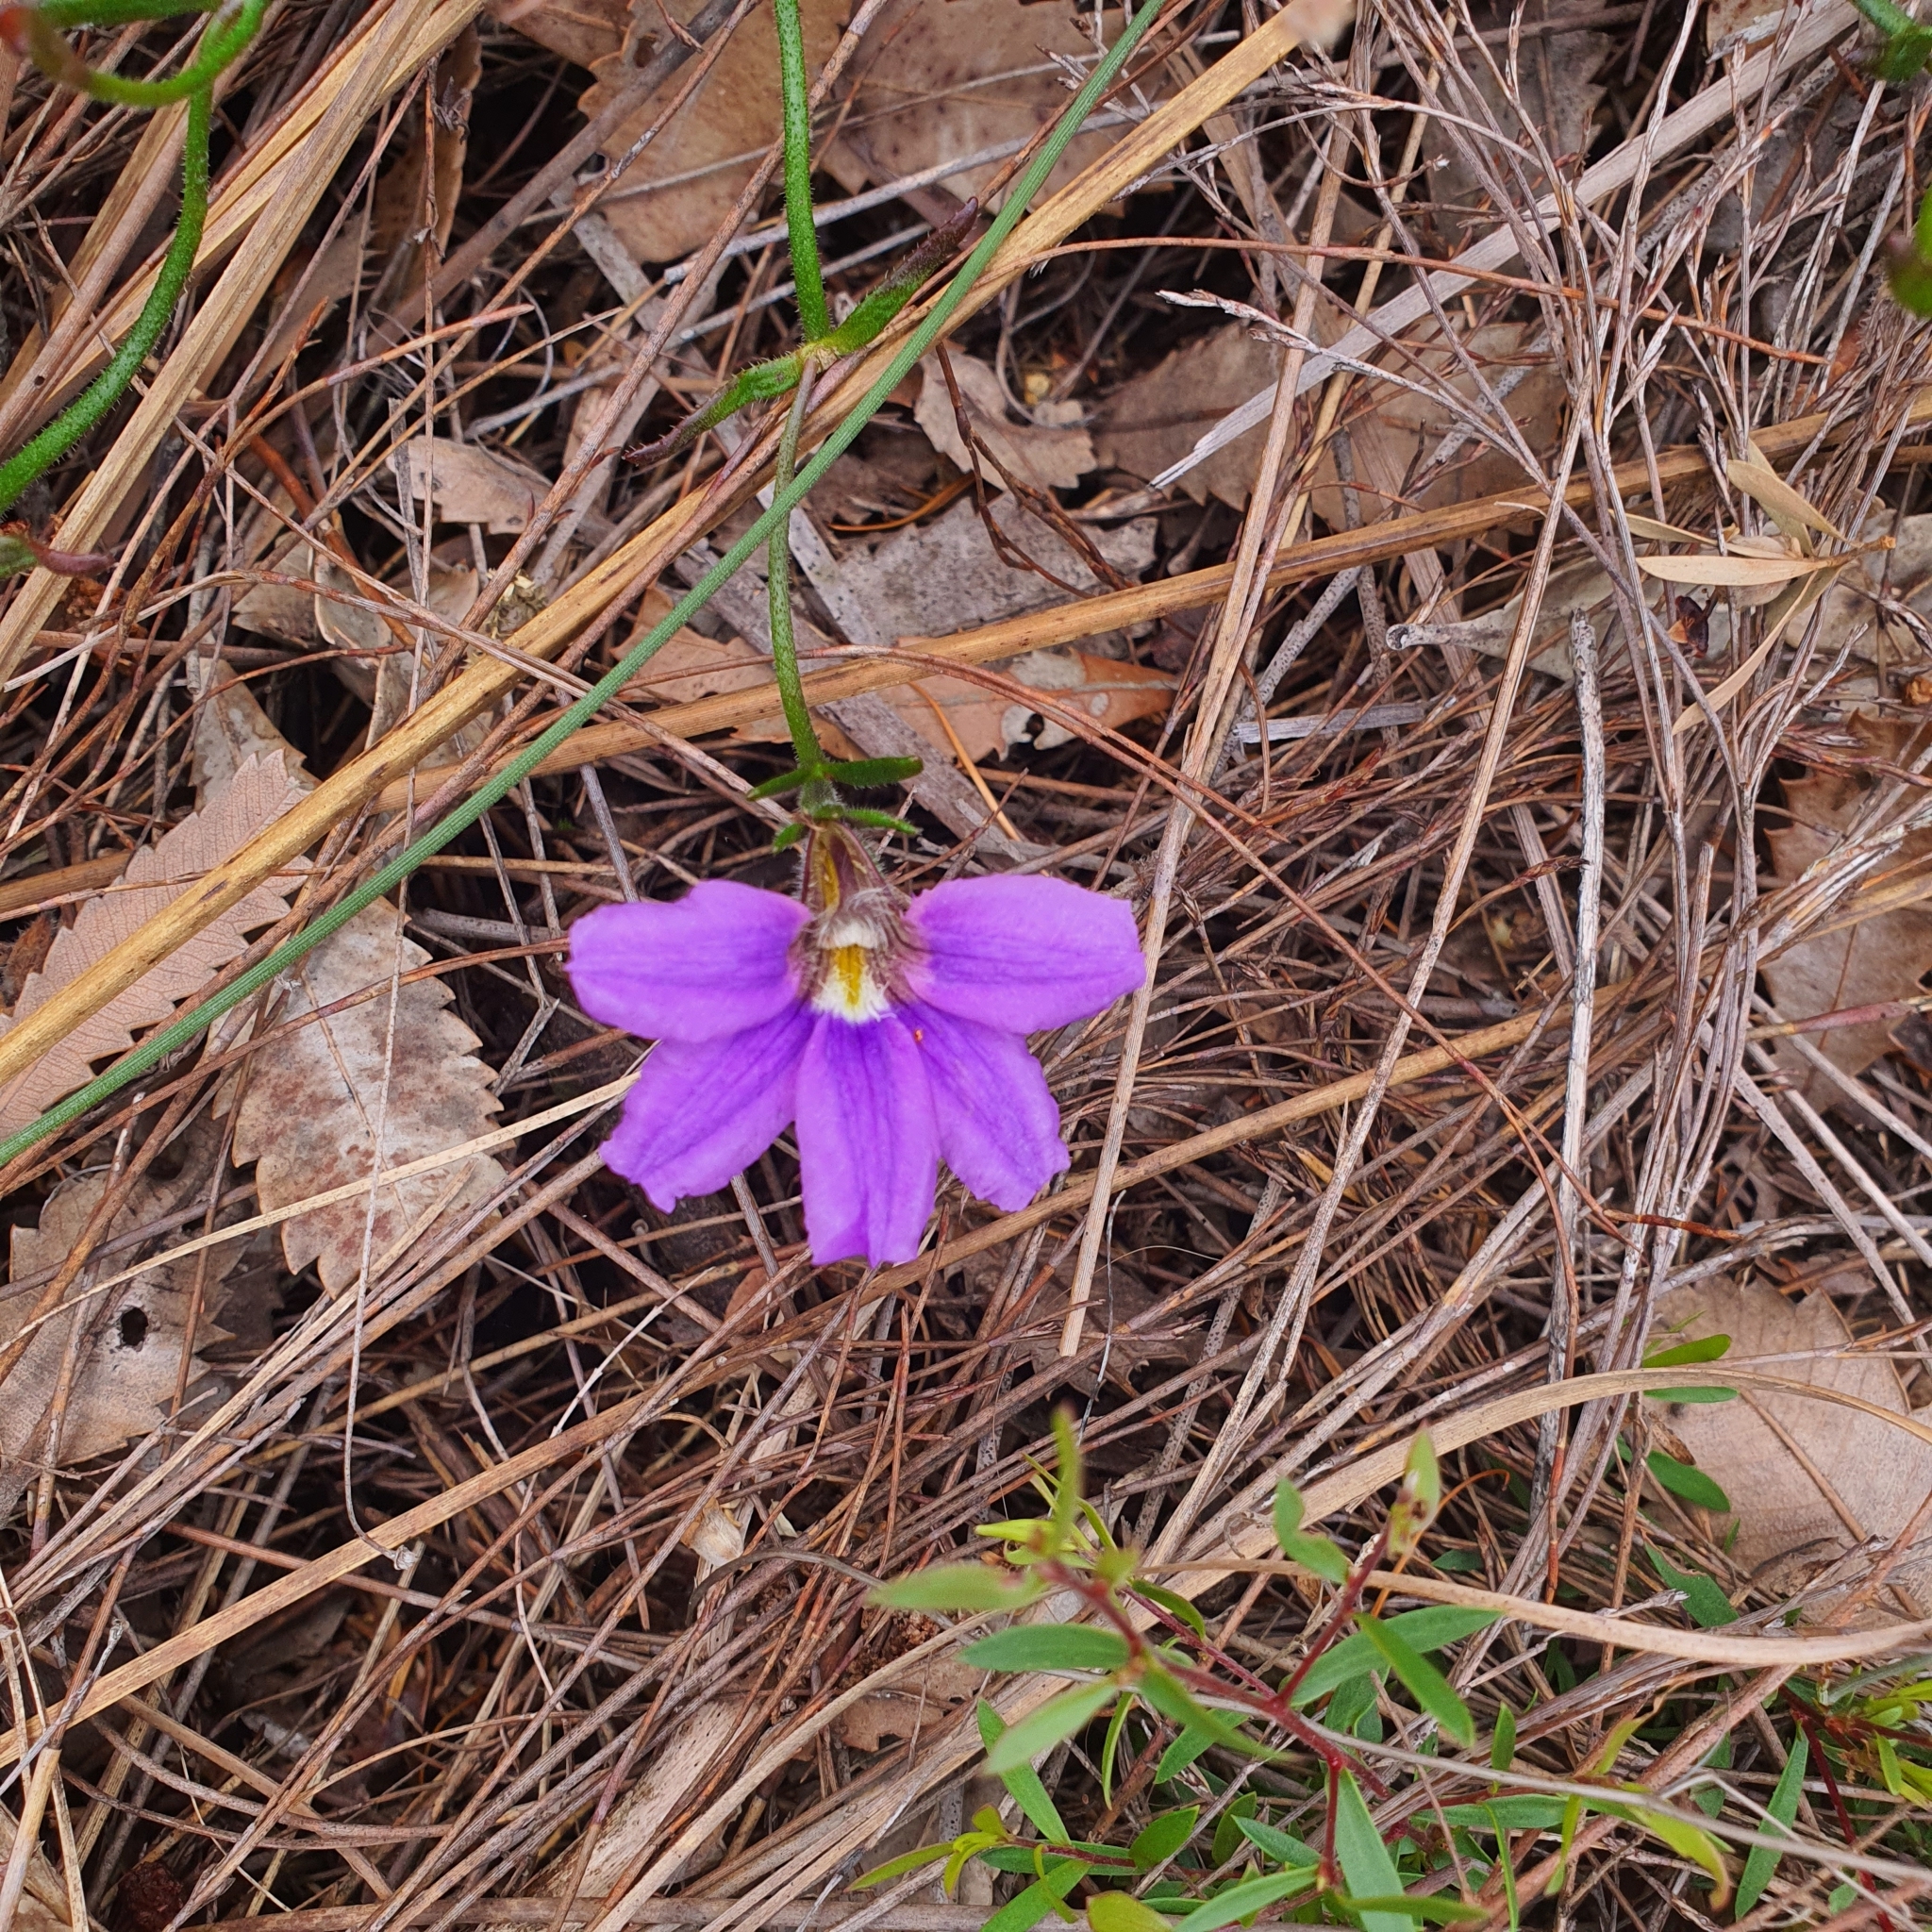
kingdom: Plantae
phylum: Tracheophyta
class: Magnoliopsida
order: Asterales
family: Goodeniaceae
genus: Scaevola
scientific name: Scaevola ramosissima
